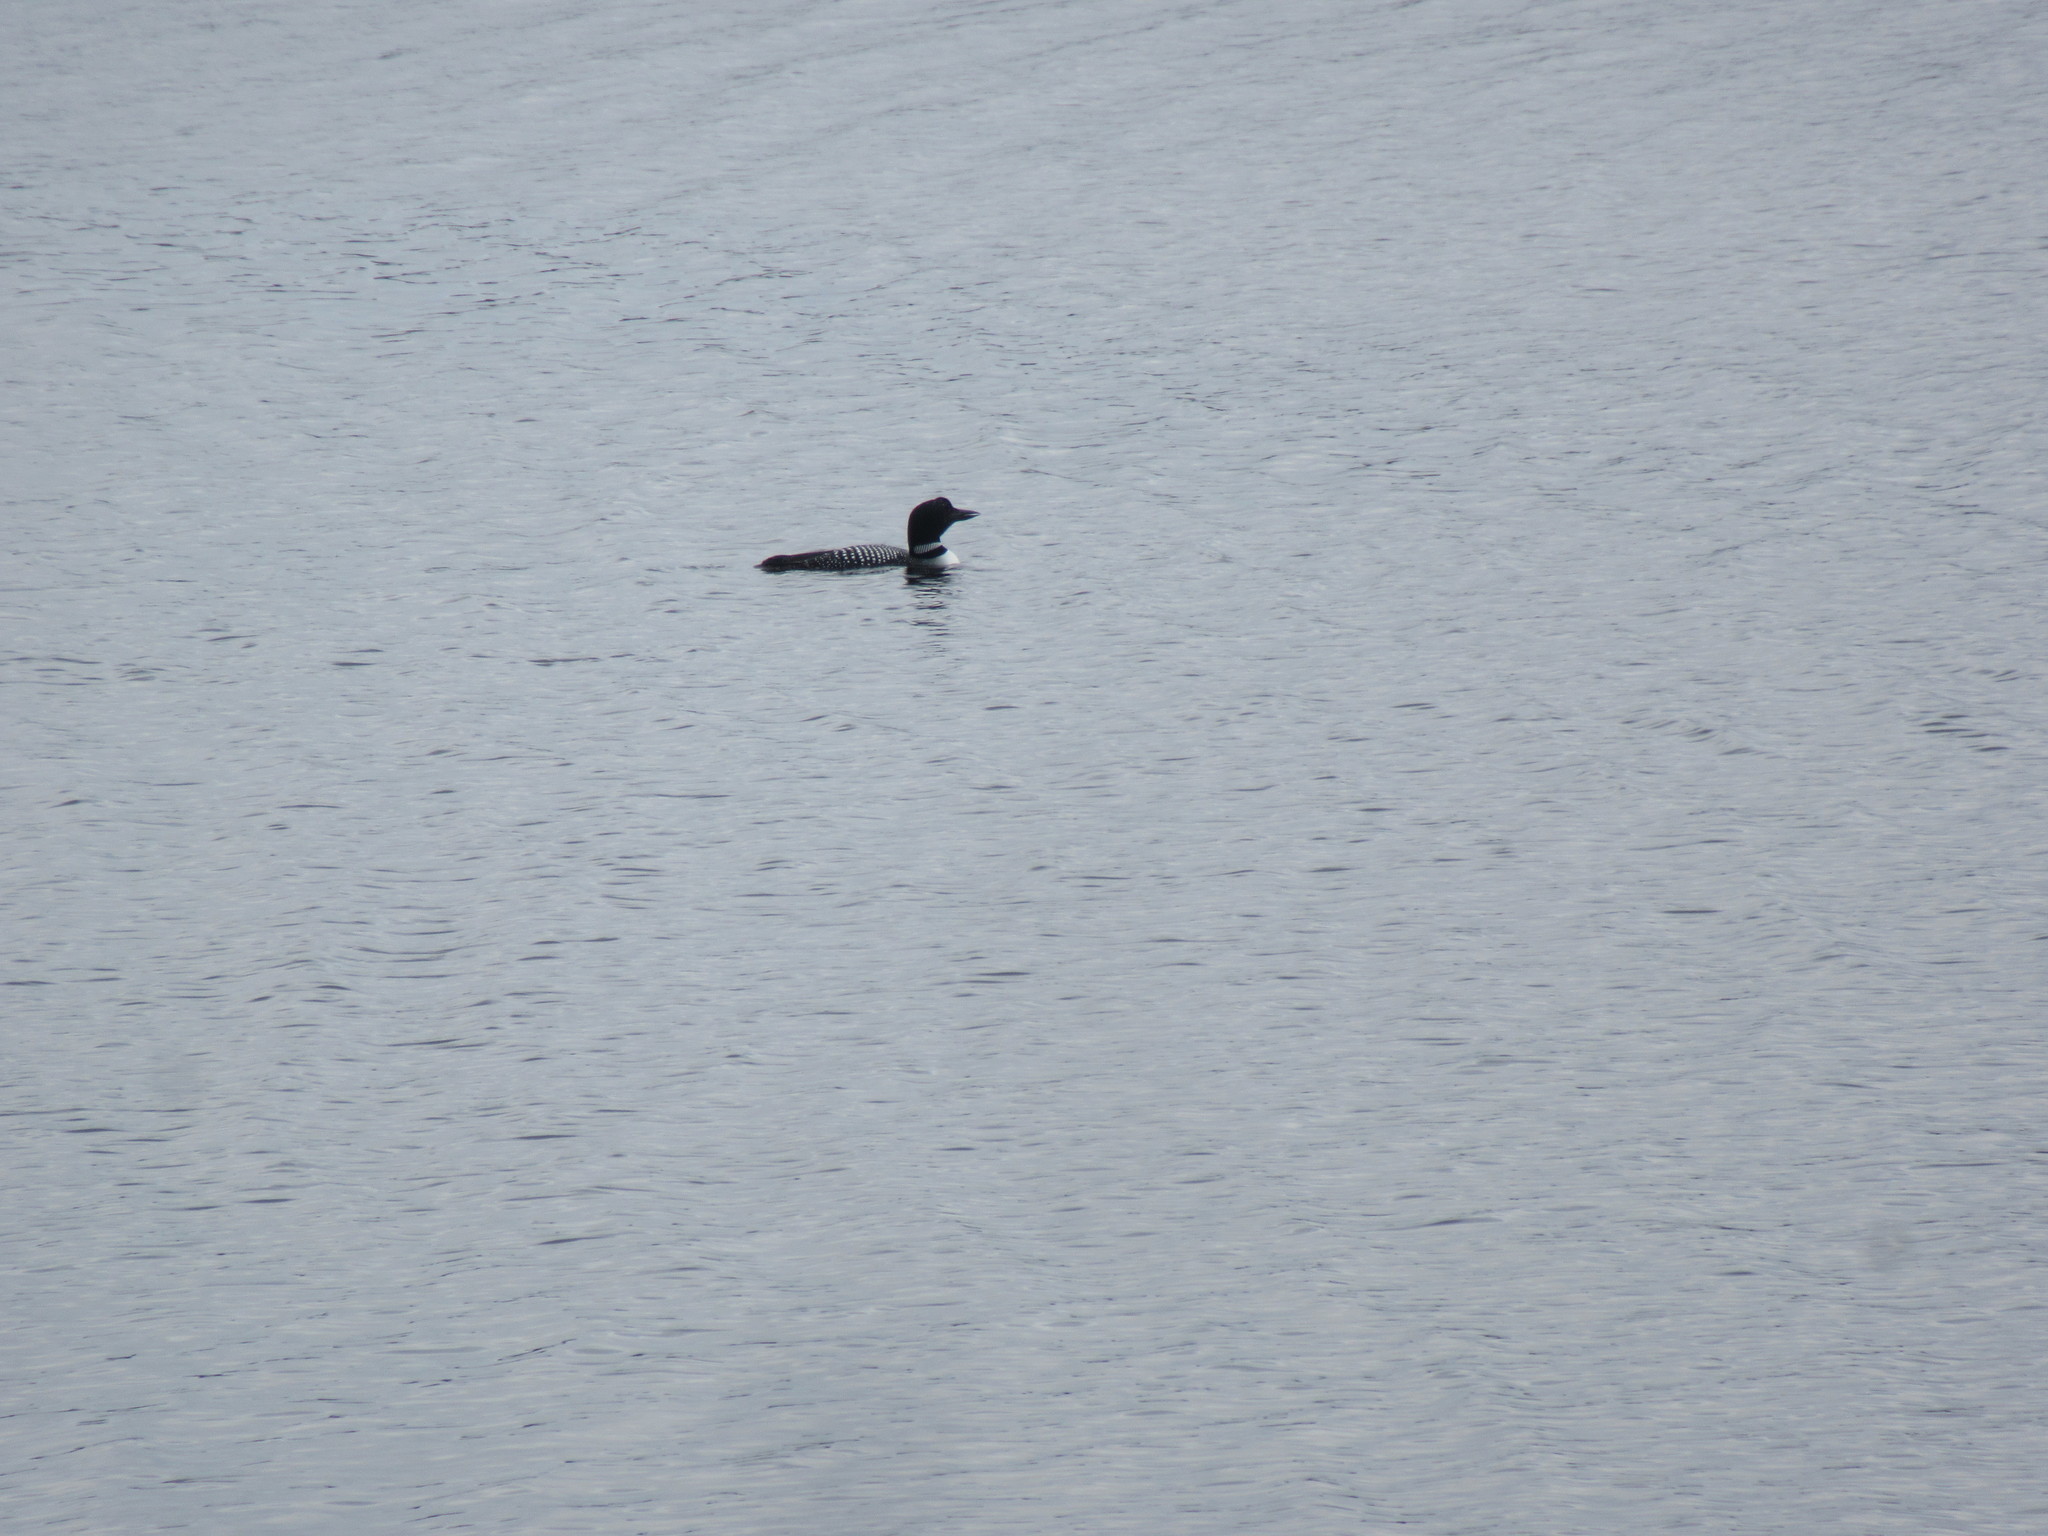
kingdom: Animalia
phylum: Chordata
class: Aves
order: Gaviiformes
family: Gaviidae
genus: Gavia
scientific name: Gavia immer
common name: Common loon
